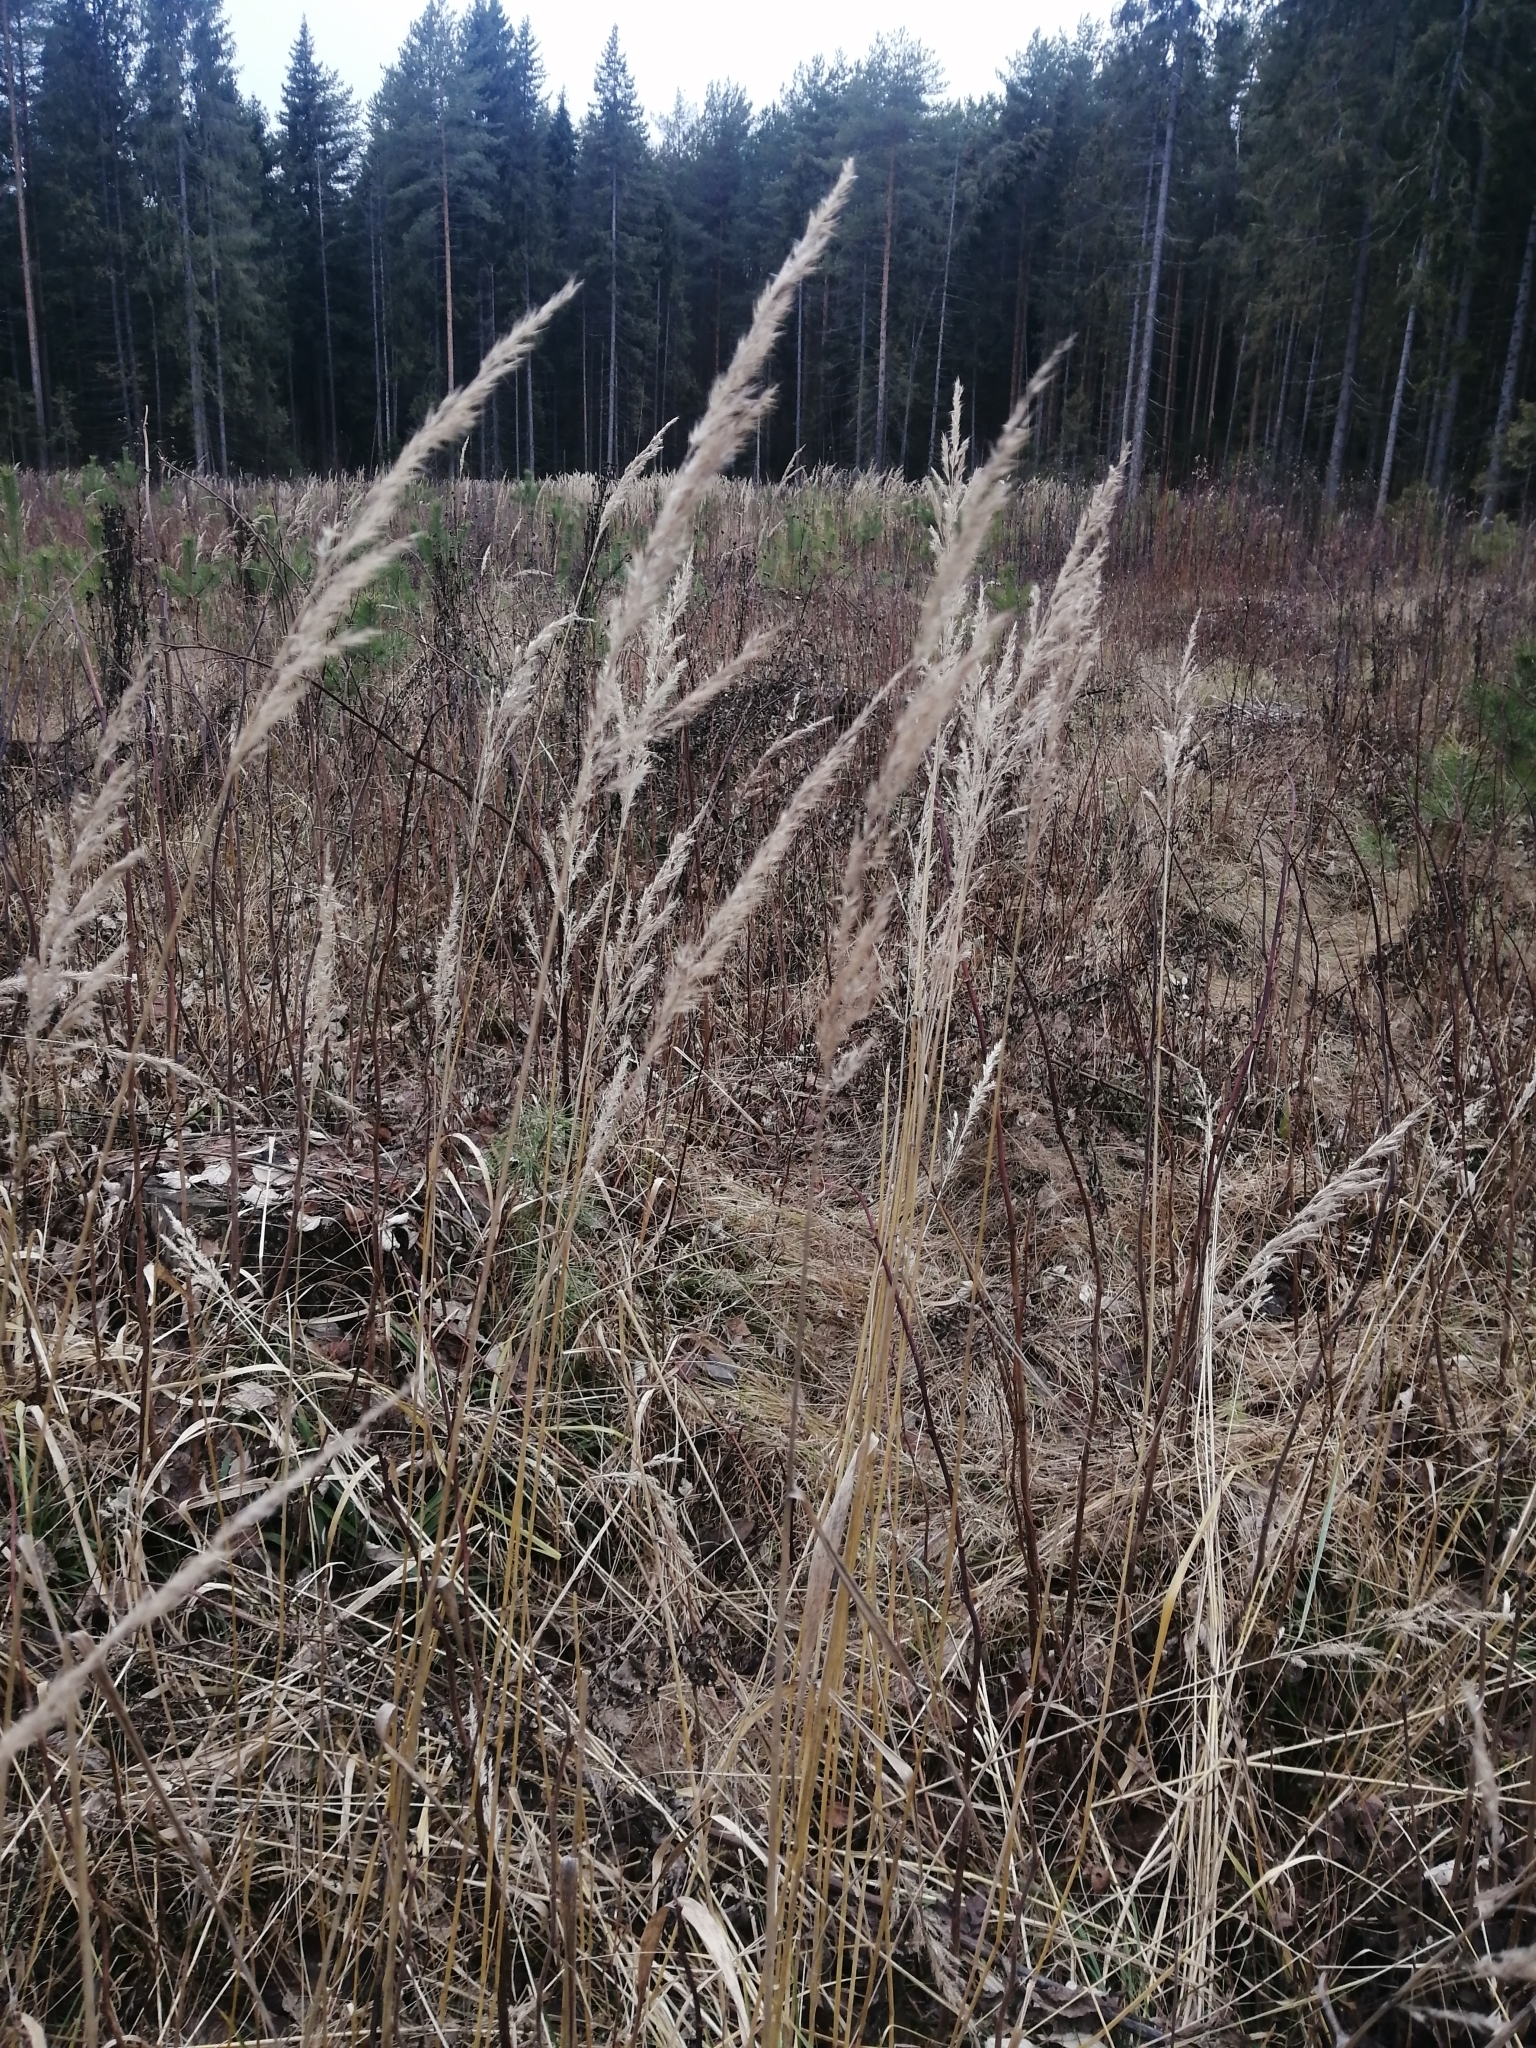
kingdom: Plantae
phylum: Tracheophyta
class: Liliopsida
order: Poales
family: Poaceae
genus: Calamagrostis
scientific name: Calamagrostis epigejos
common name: Wood small-reed
